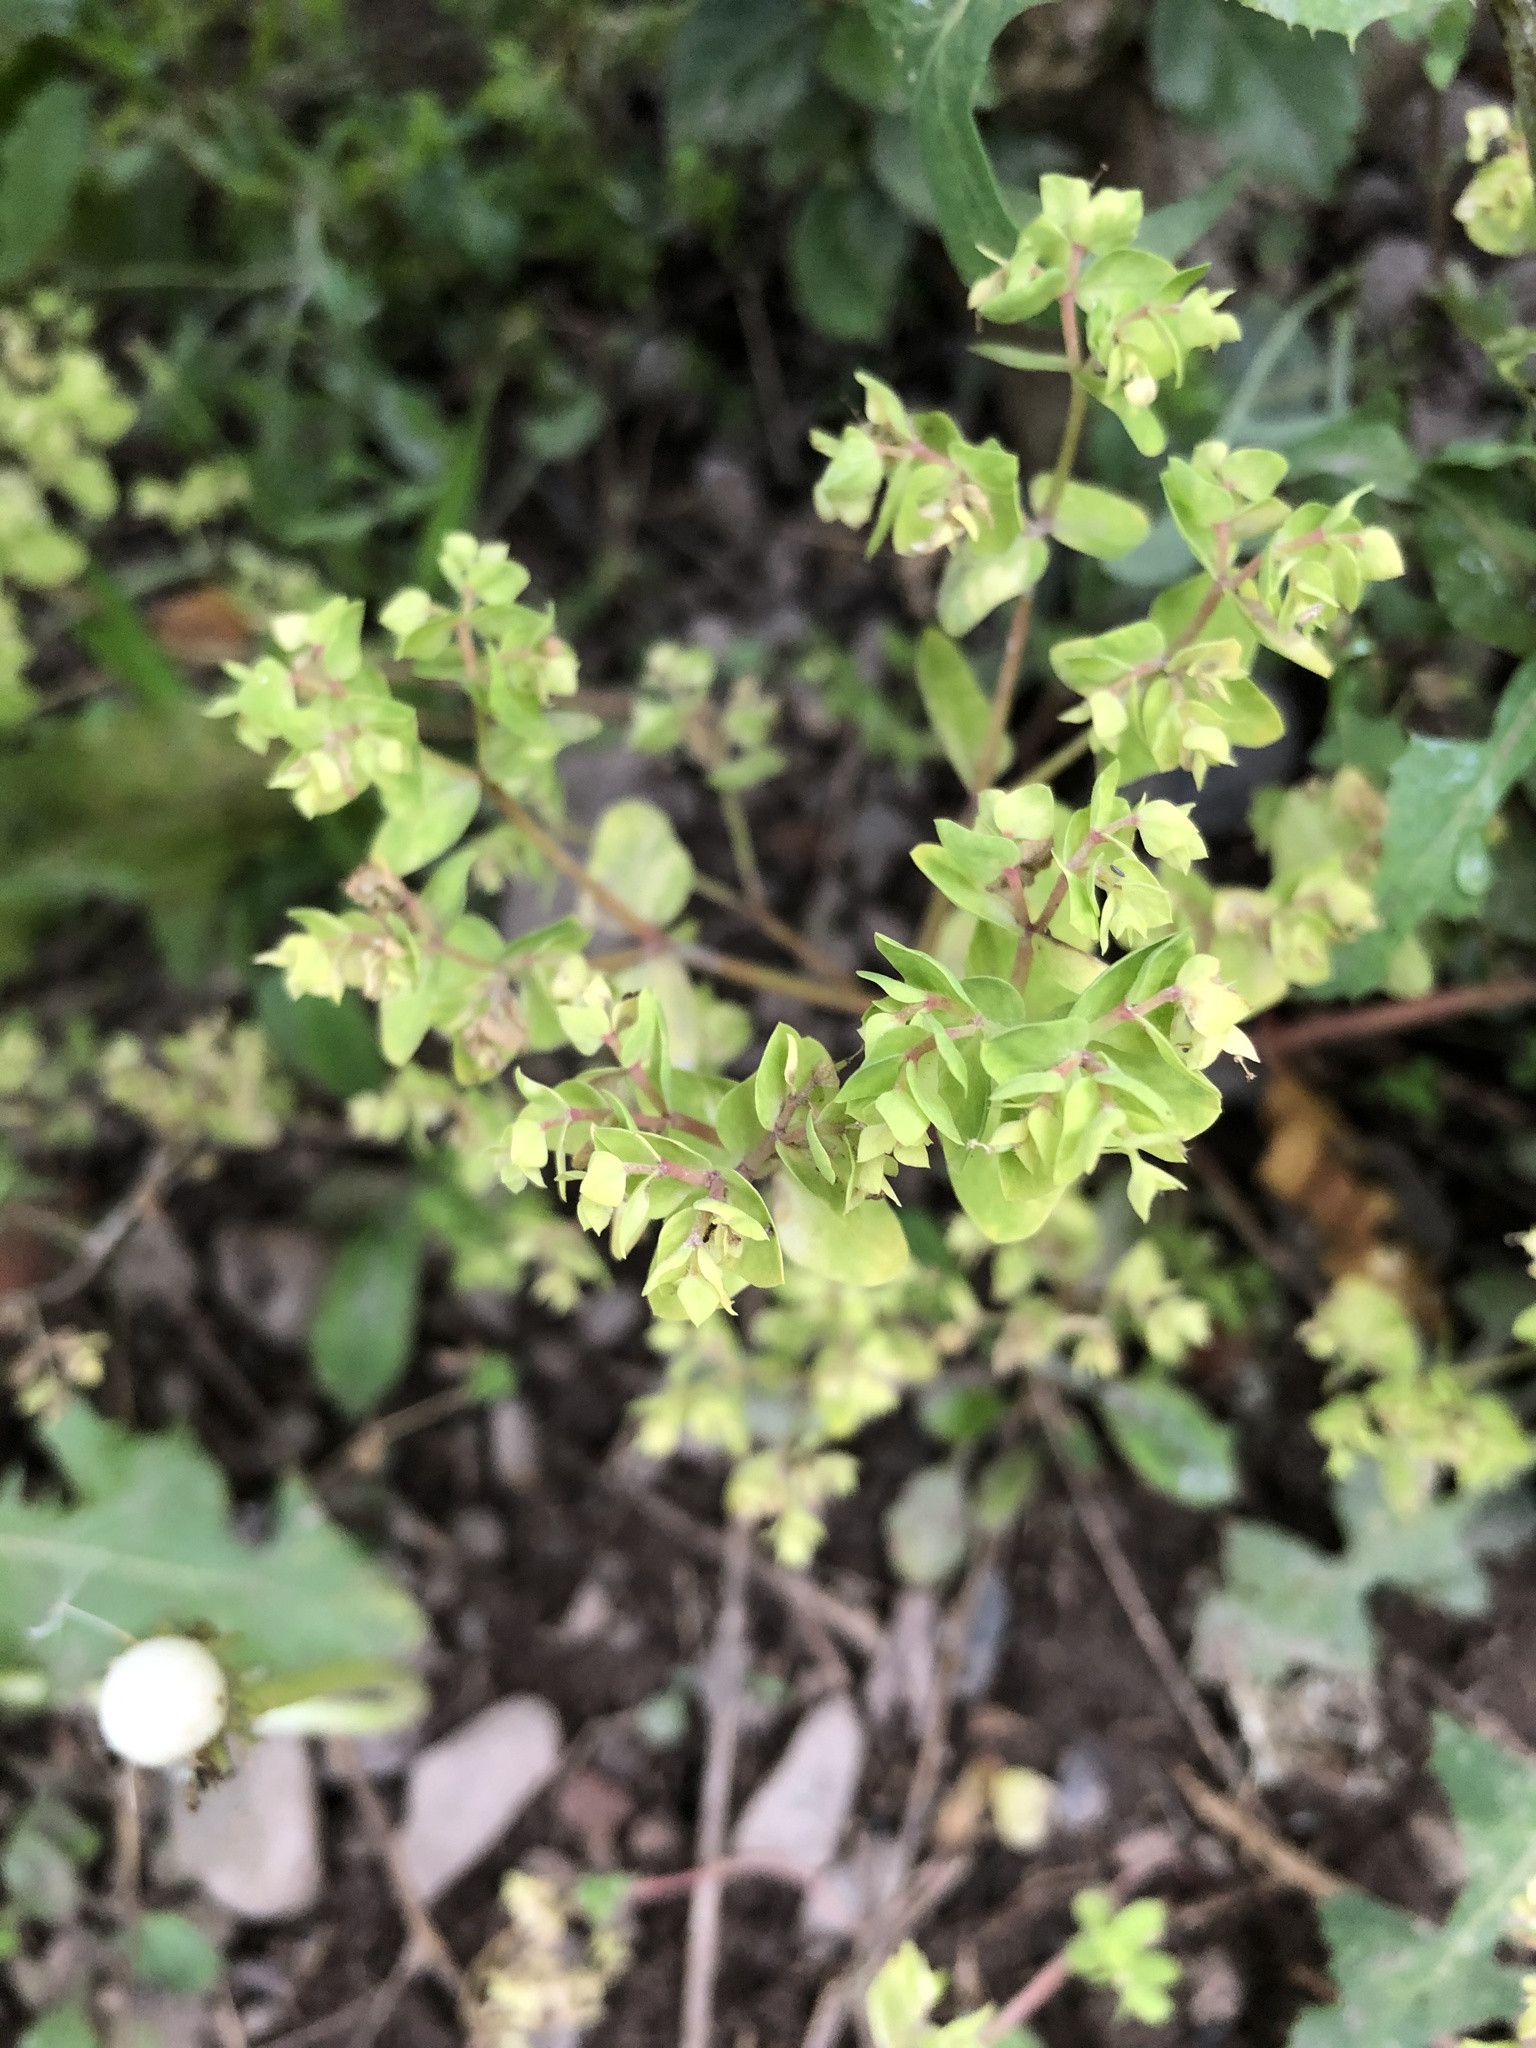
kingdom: Plantae
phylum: Tracheophyta
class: Magnoliopsida
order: Malpighiales
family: Euphorbiaceae
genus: Euphorbia
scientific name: Euphorbia peplus
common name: Petty spurge
